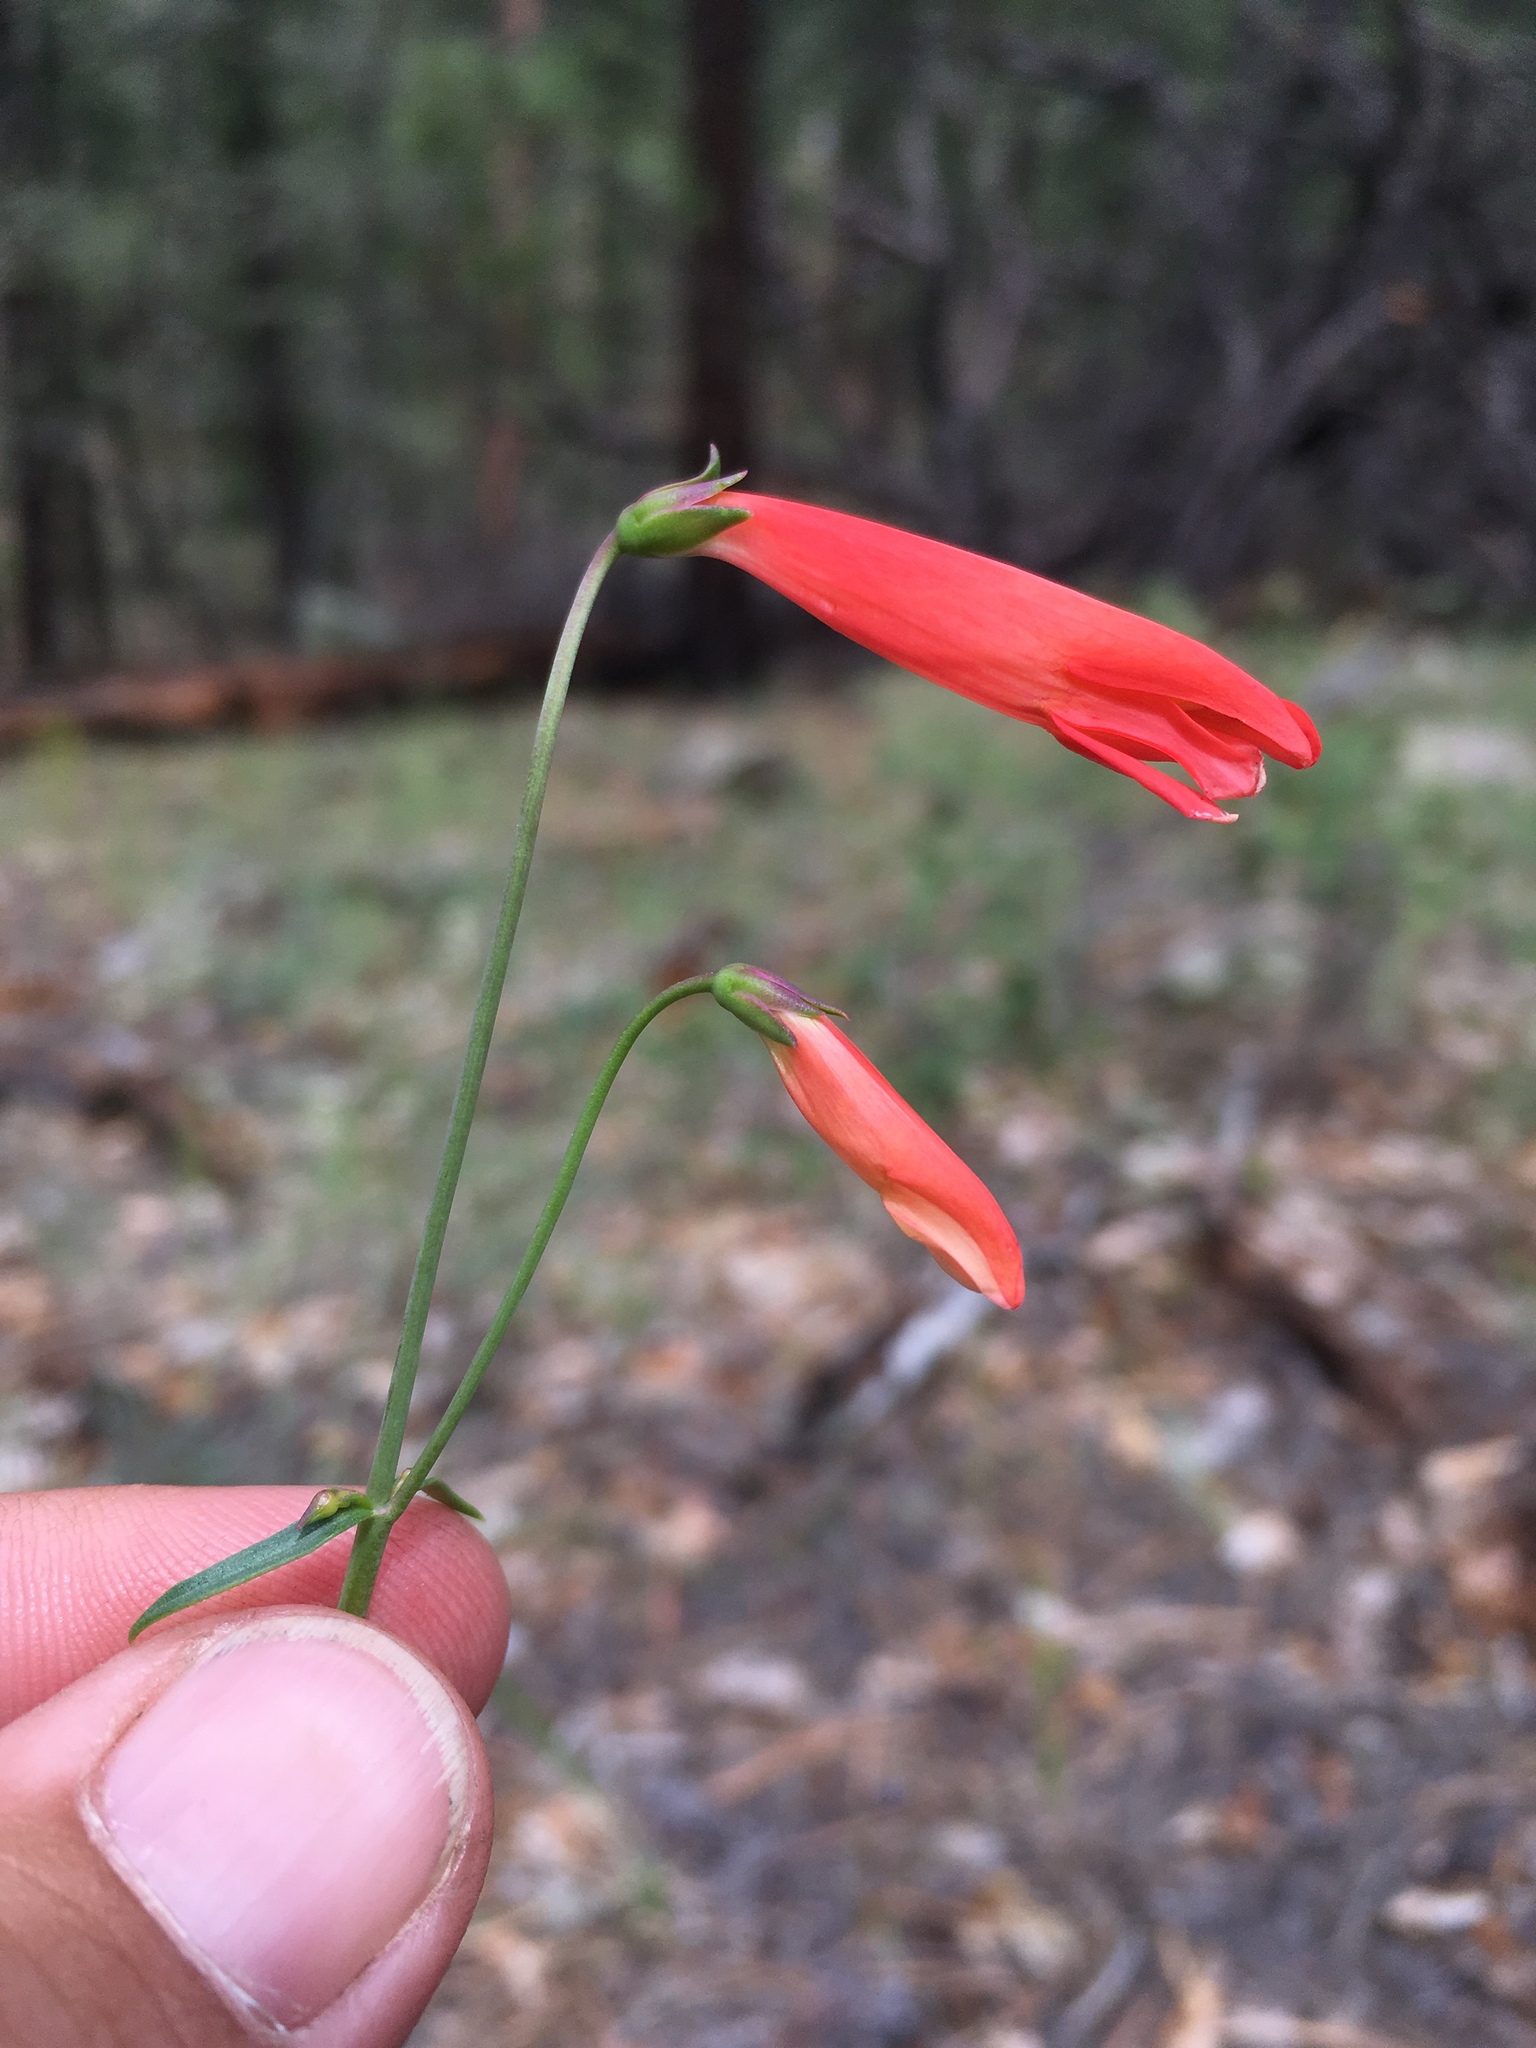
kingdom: Plantae
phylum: Tracheophyta
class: Magnoliopsida
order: Lamiales
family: Plantaginaceae
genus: Penstemon
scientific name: Penstemon barbatus
